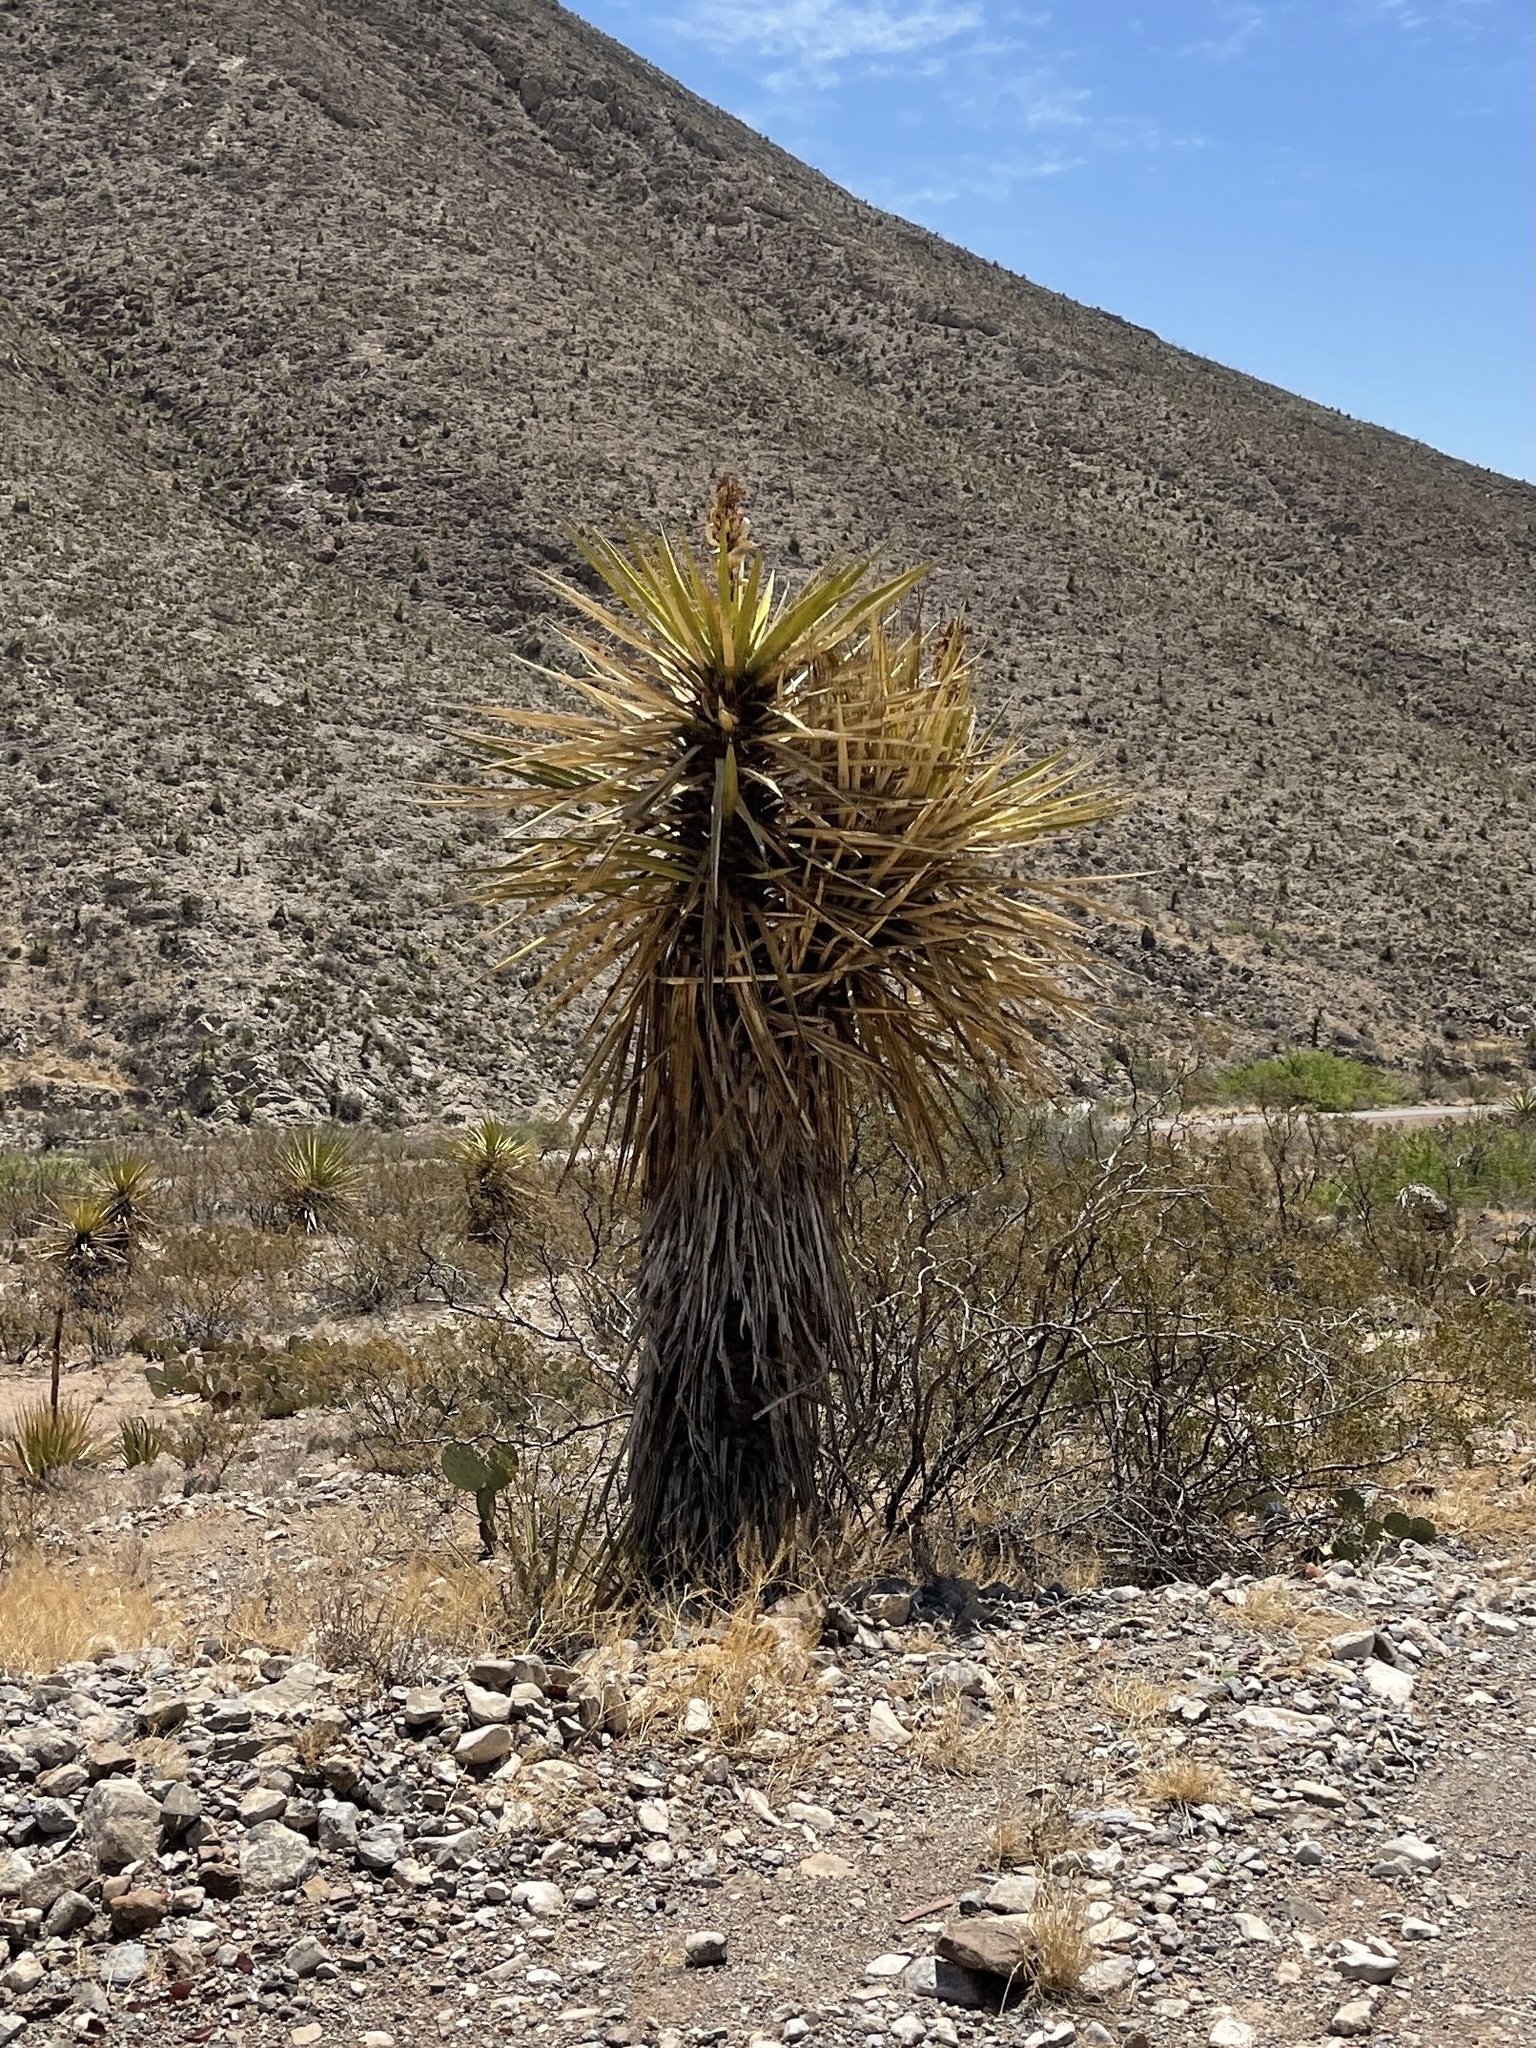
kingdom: Plantae
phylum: Tracheophyta
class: Liliopsida
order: Asparagales
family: Asparagaceae
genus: Yucca
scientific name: Yucca treculiana
